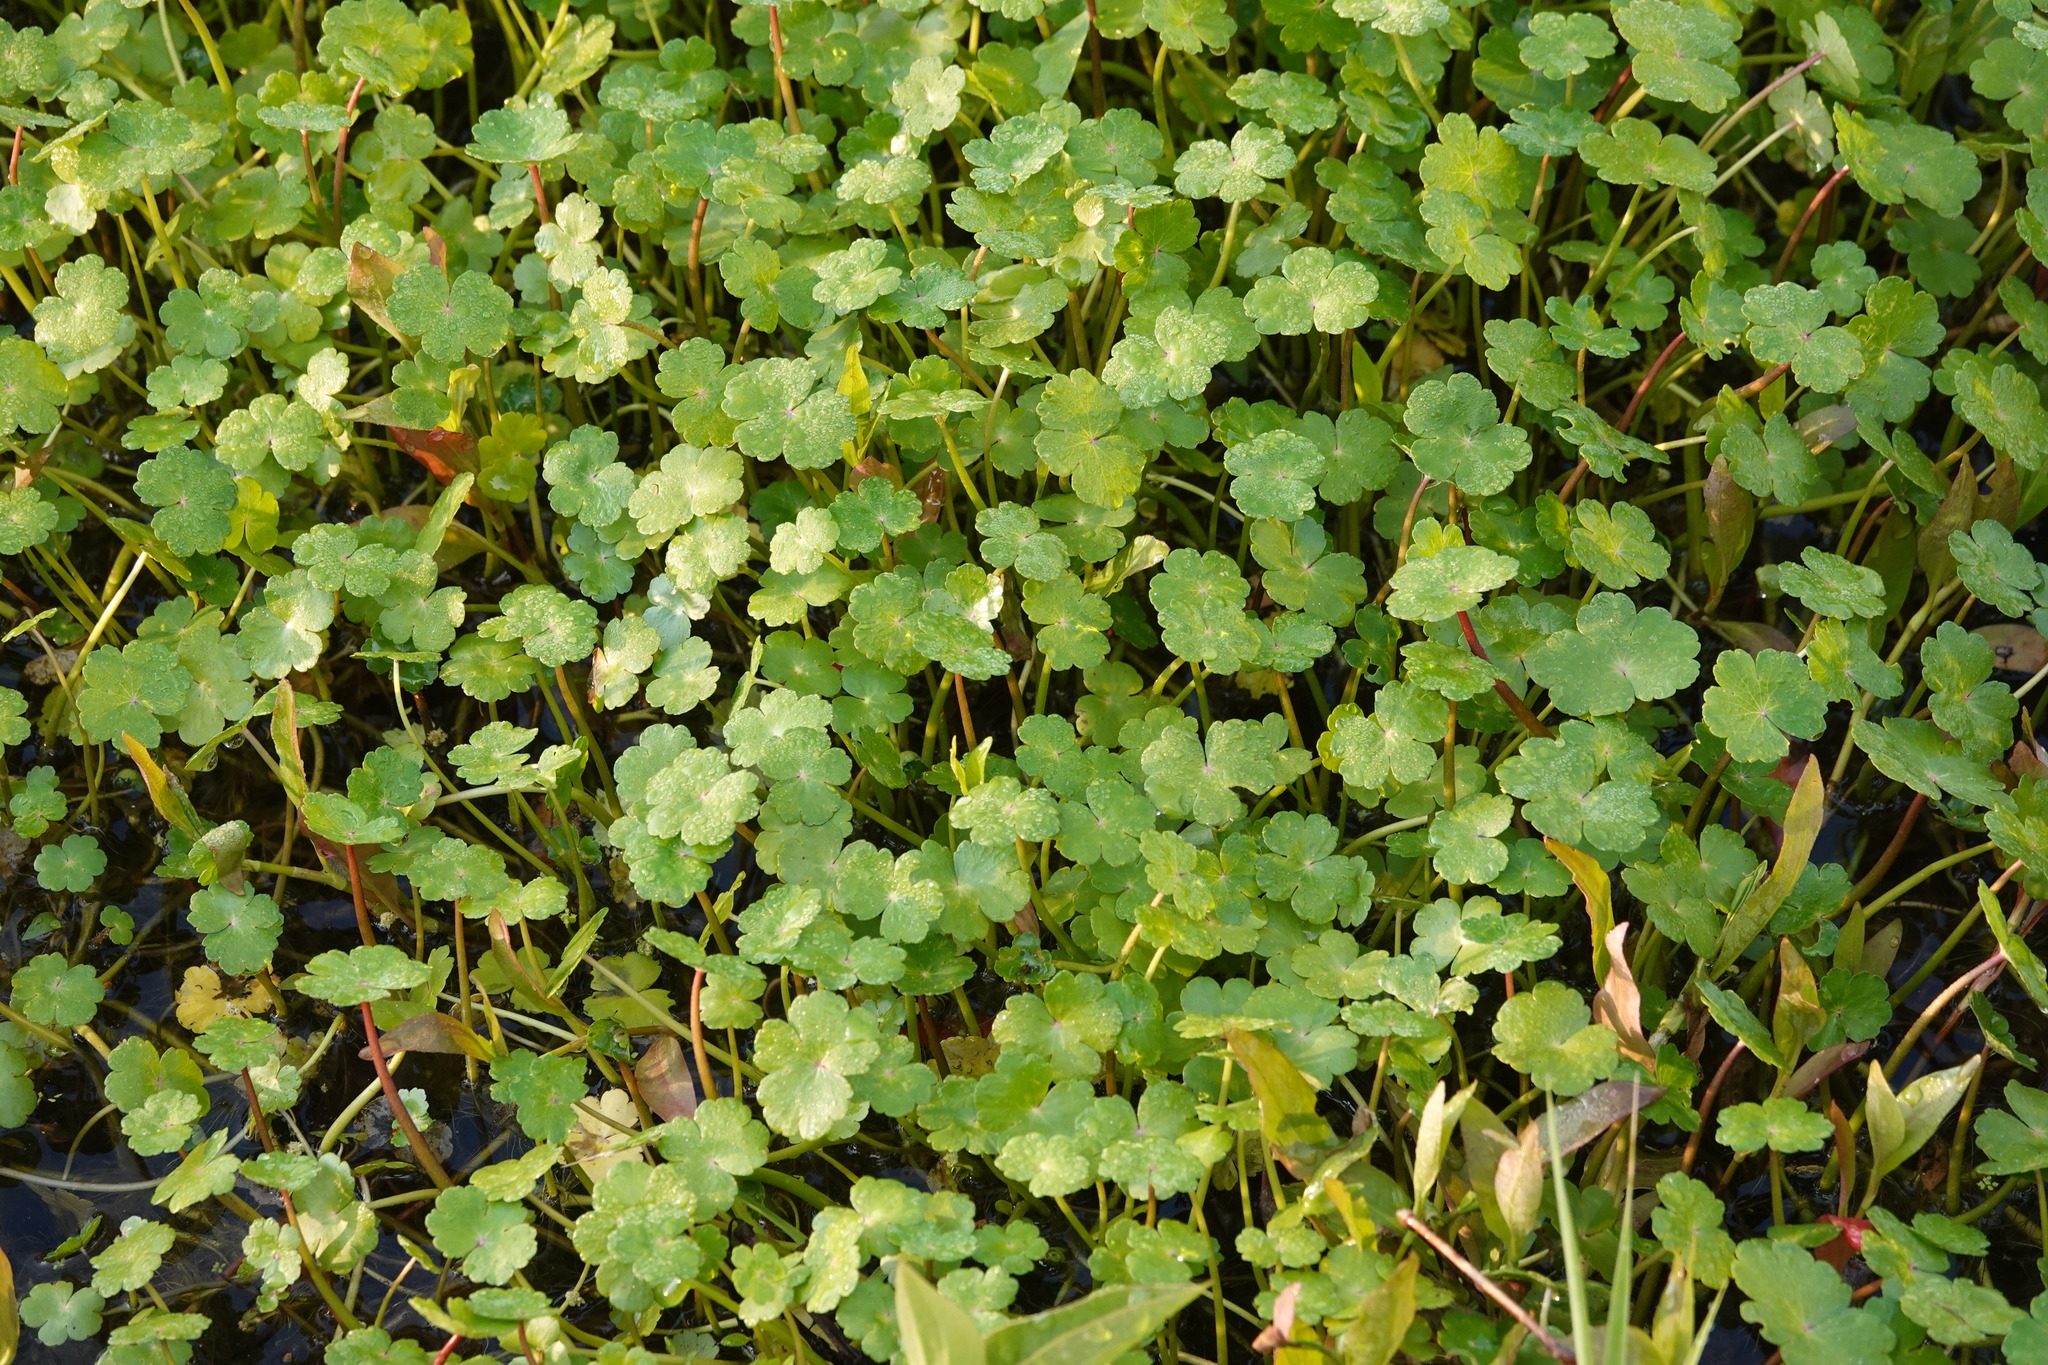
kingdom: Plantae
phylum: Tracheophyta
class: Magnoliopsida
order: Apiales
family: Araliaceae
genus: Hydrocotyle
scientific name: Hydrocotyle ranunculoides
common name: Floating pennywort
